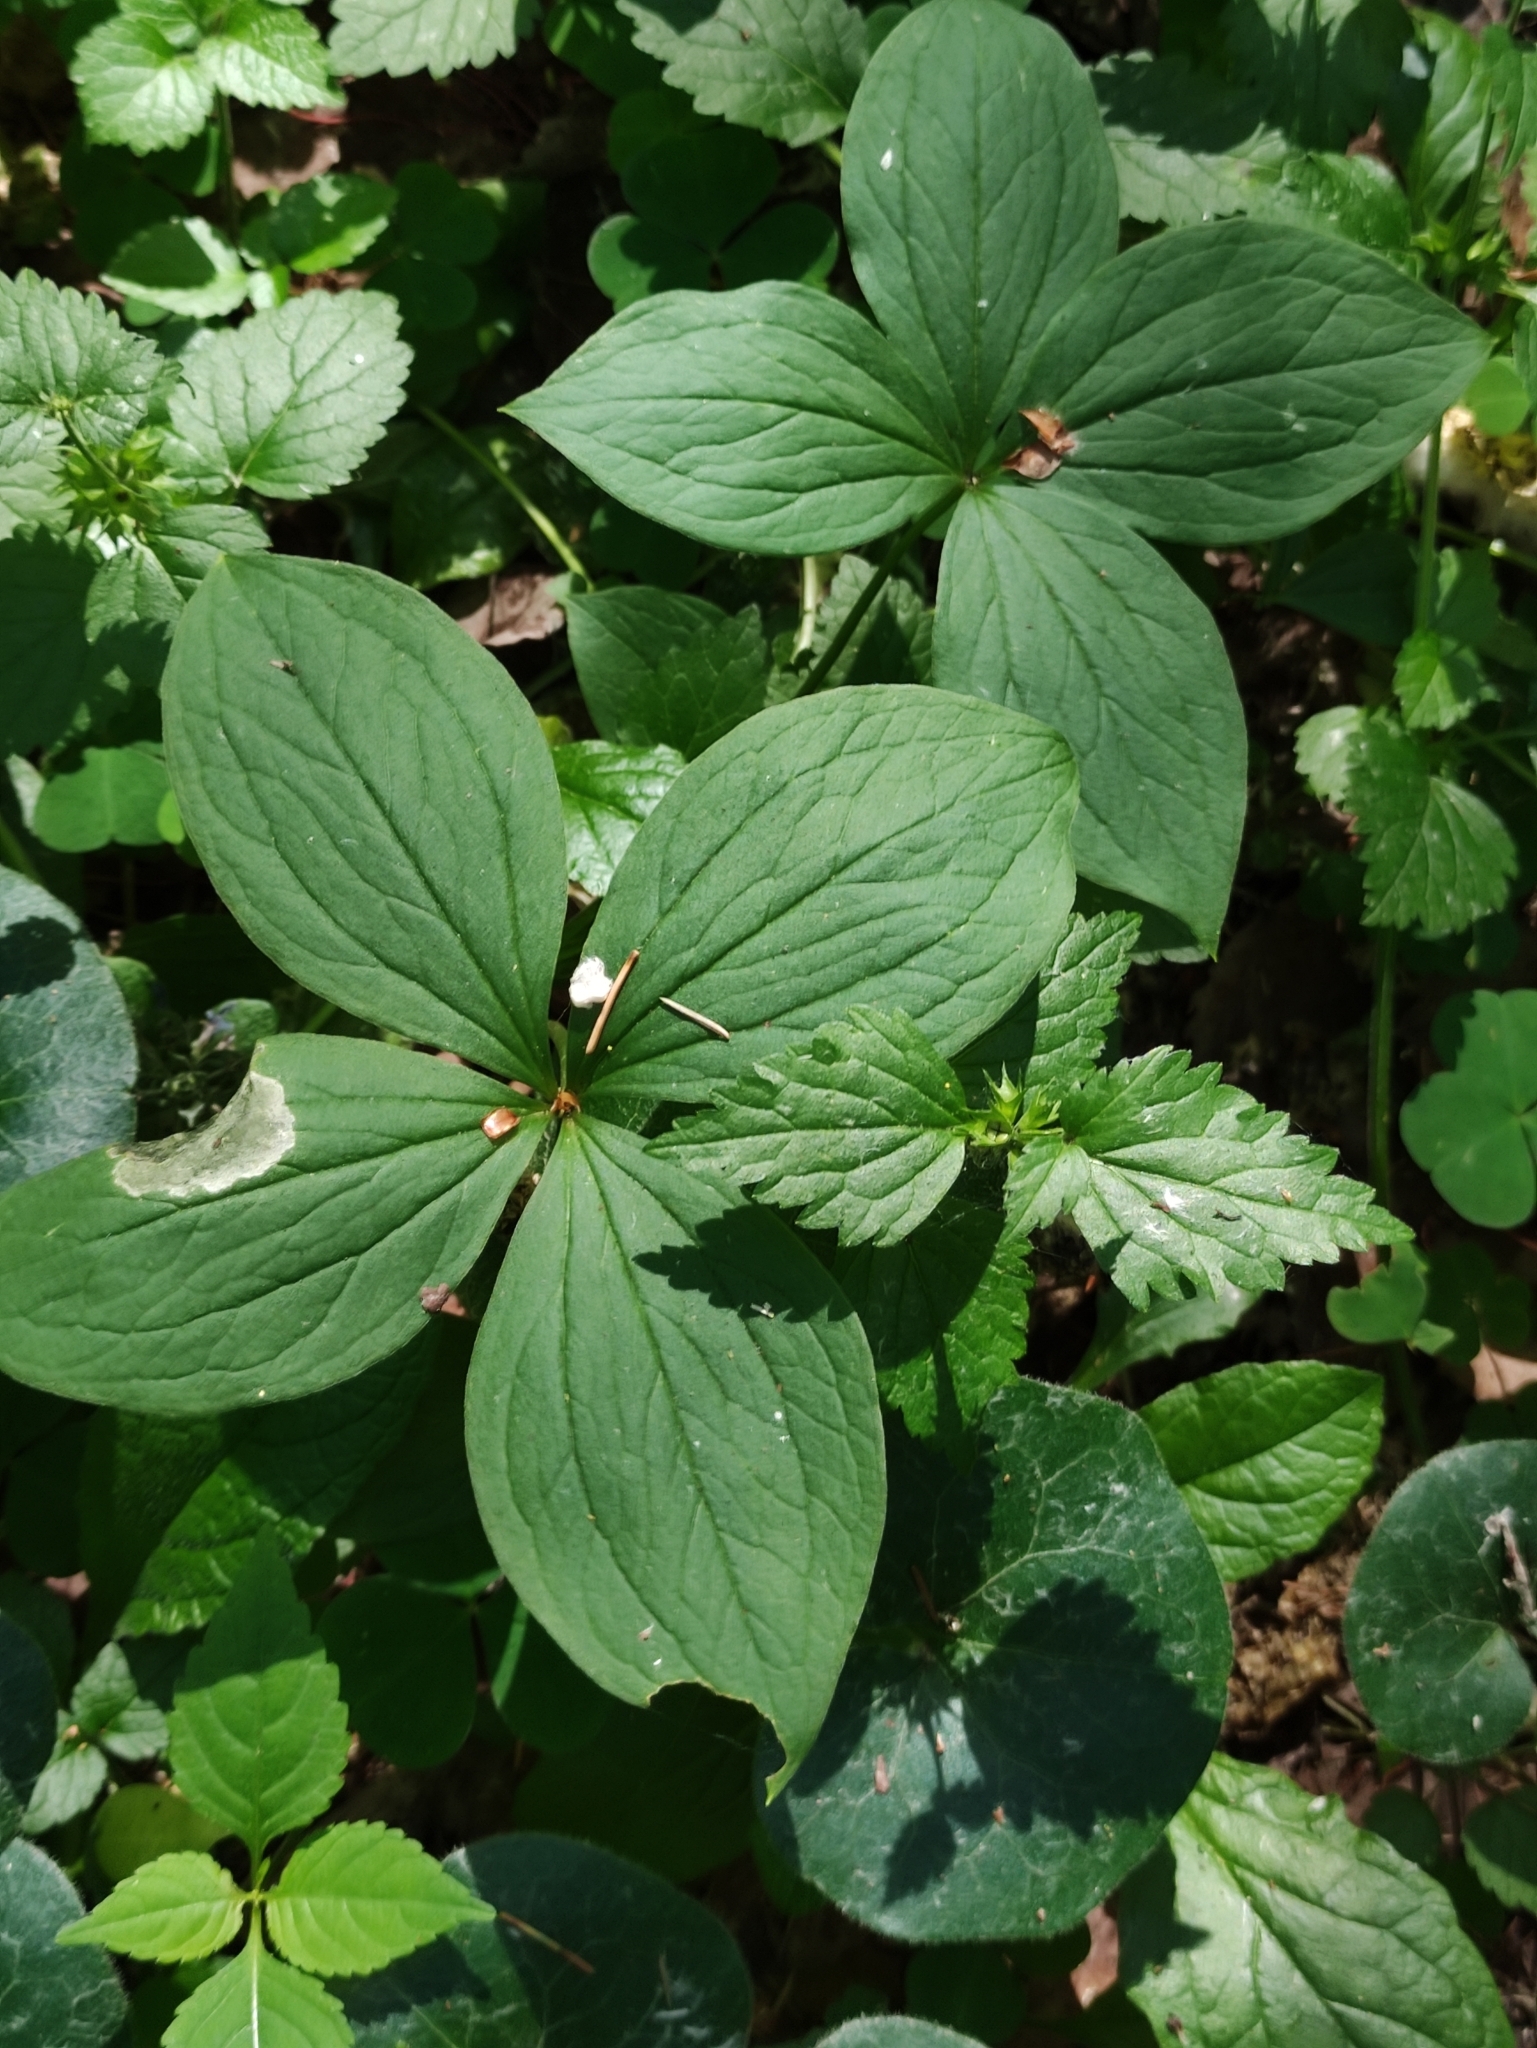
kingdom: Plantae
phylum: Tracheophyta
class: Liliopsida
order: Liliales
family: Melanthiaceae
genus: Paris
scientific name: Paris quadrifolia
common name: Herb-paris
